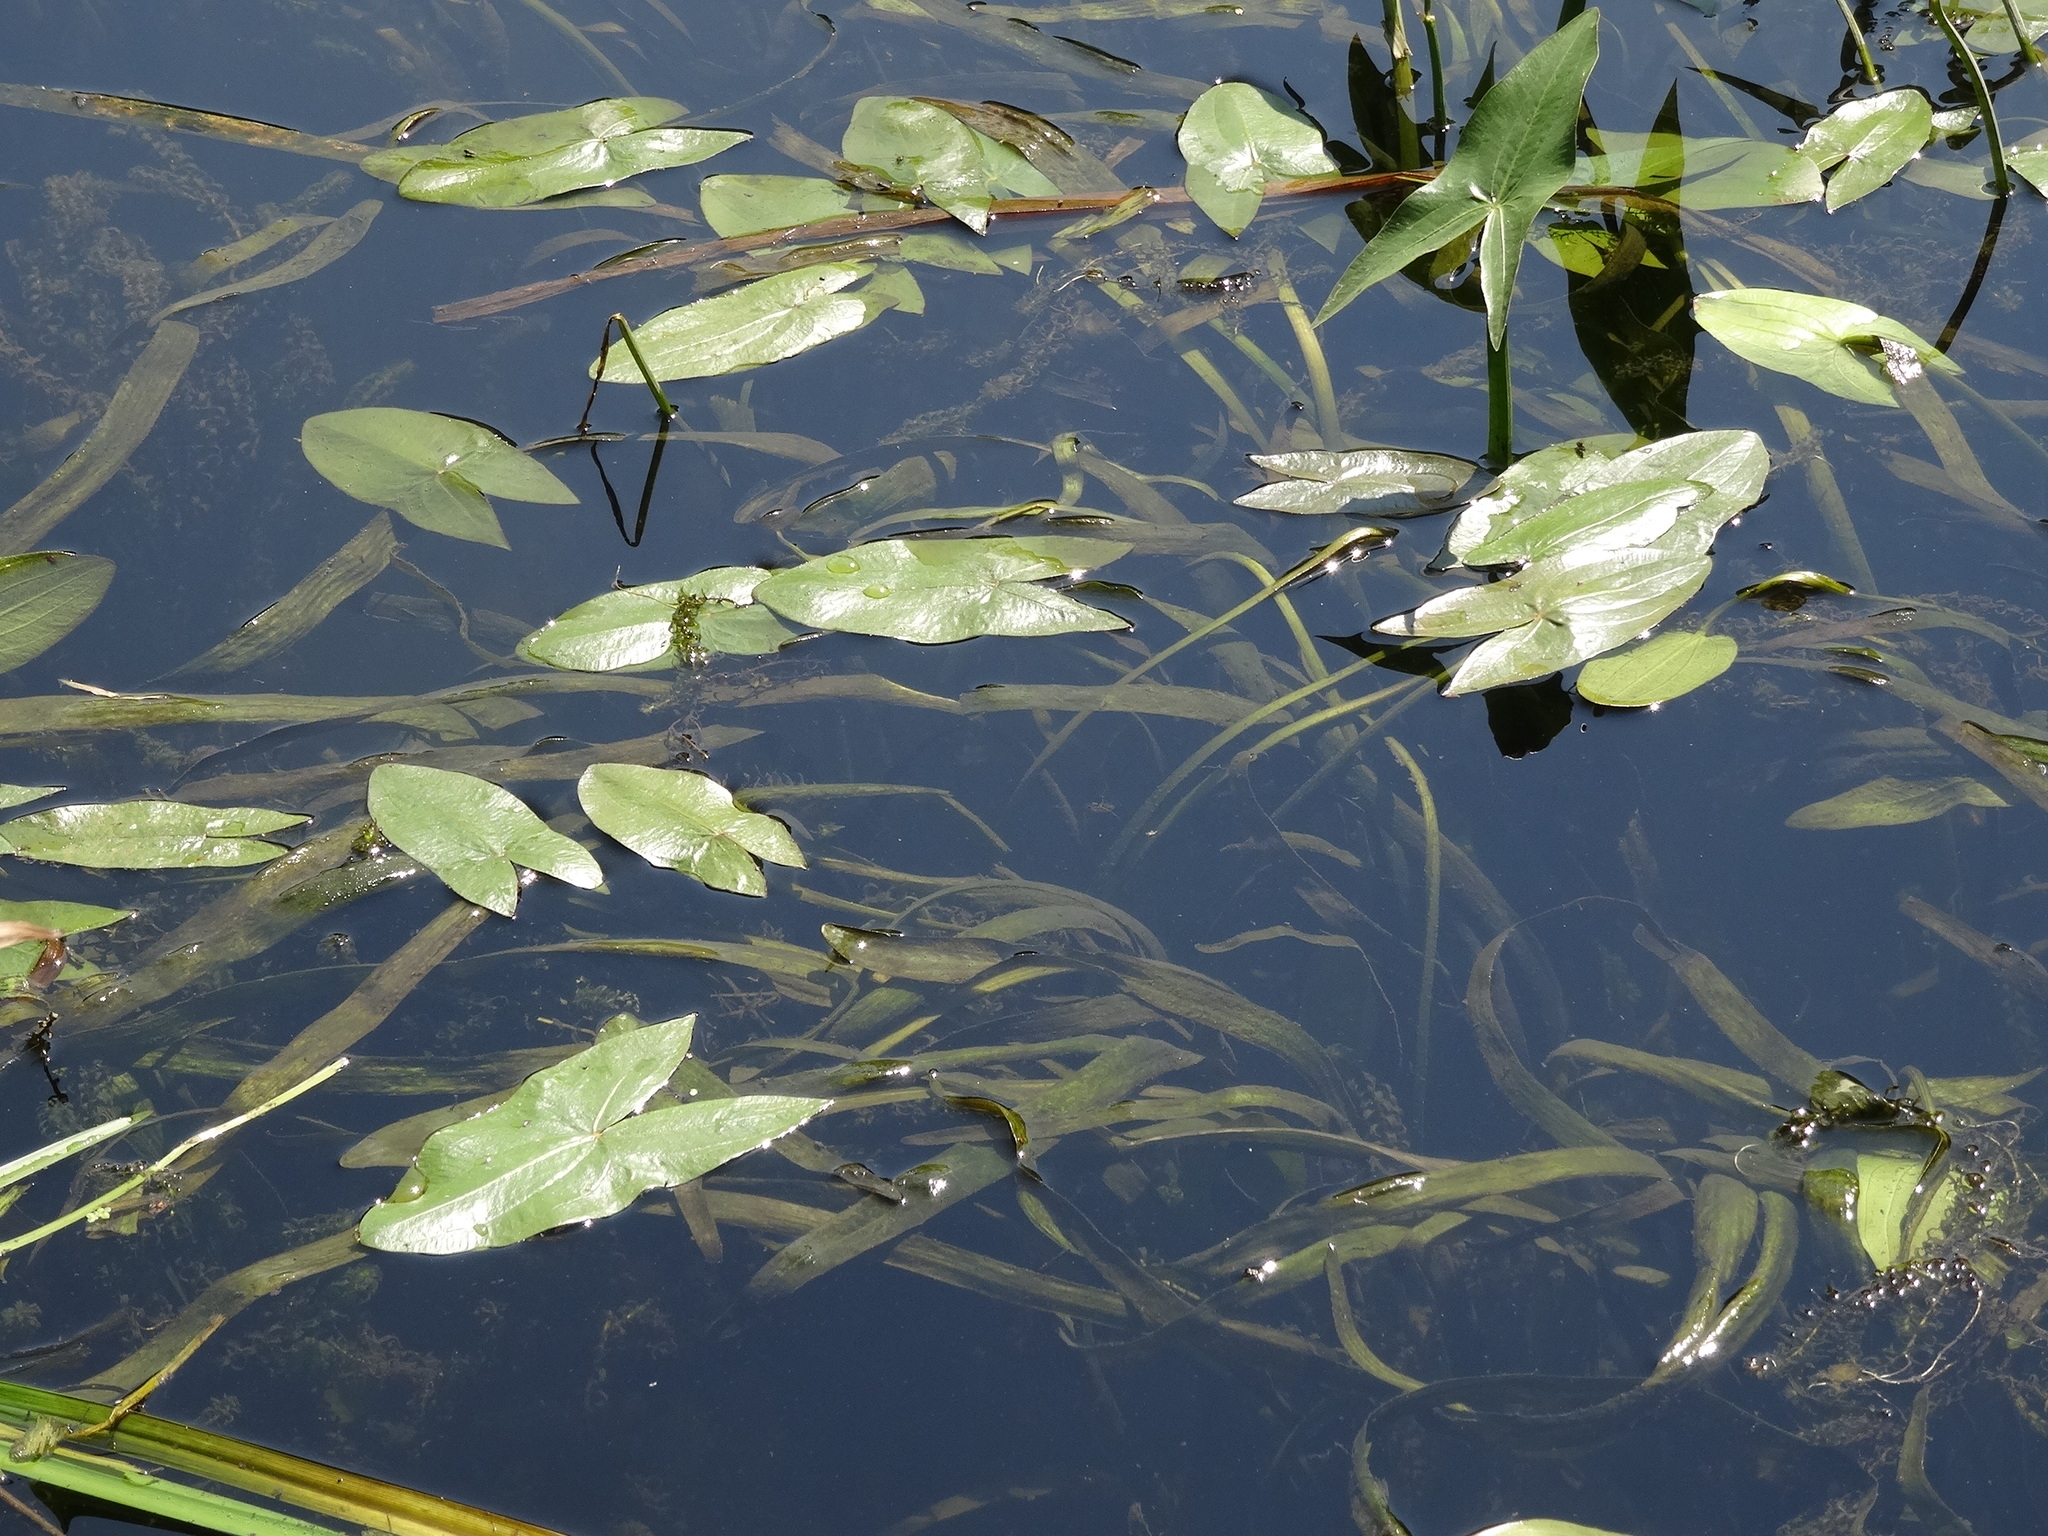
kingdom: Plantae
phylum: Tracheophyta
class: Liliopsida
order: Alismatales
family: Alismataceae
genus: Sagittaria
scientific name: Sagittaria sagittifolia
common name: Arrowhead
